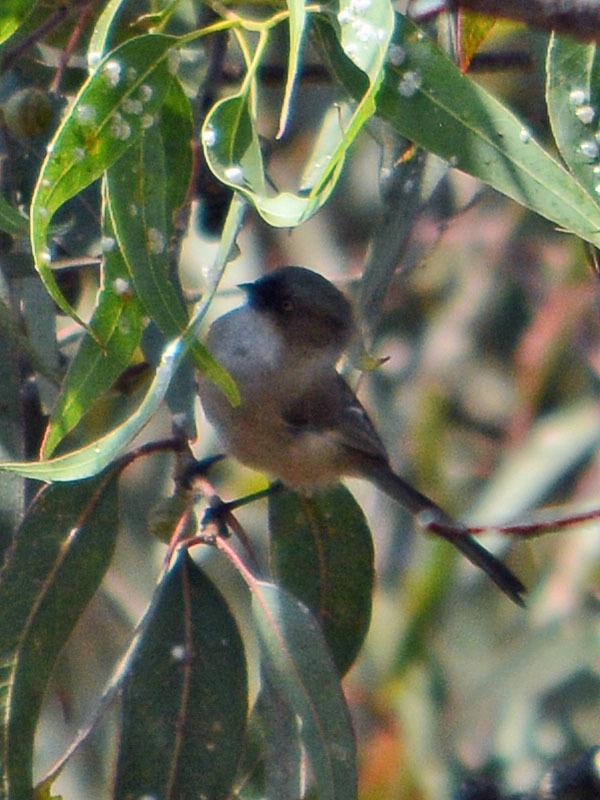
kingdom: Animalia
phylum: Chordata
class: Aves
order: Passeriformes
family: Aegithalidae
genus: Psaltriparus
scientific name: Psaltriparus minimus
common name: American bushtit
